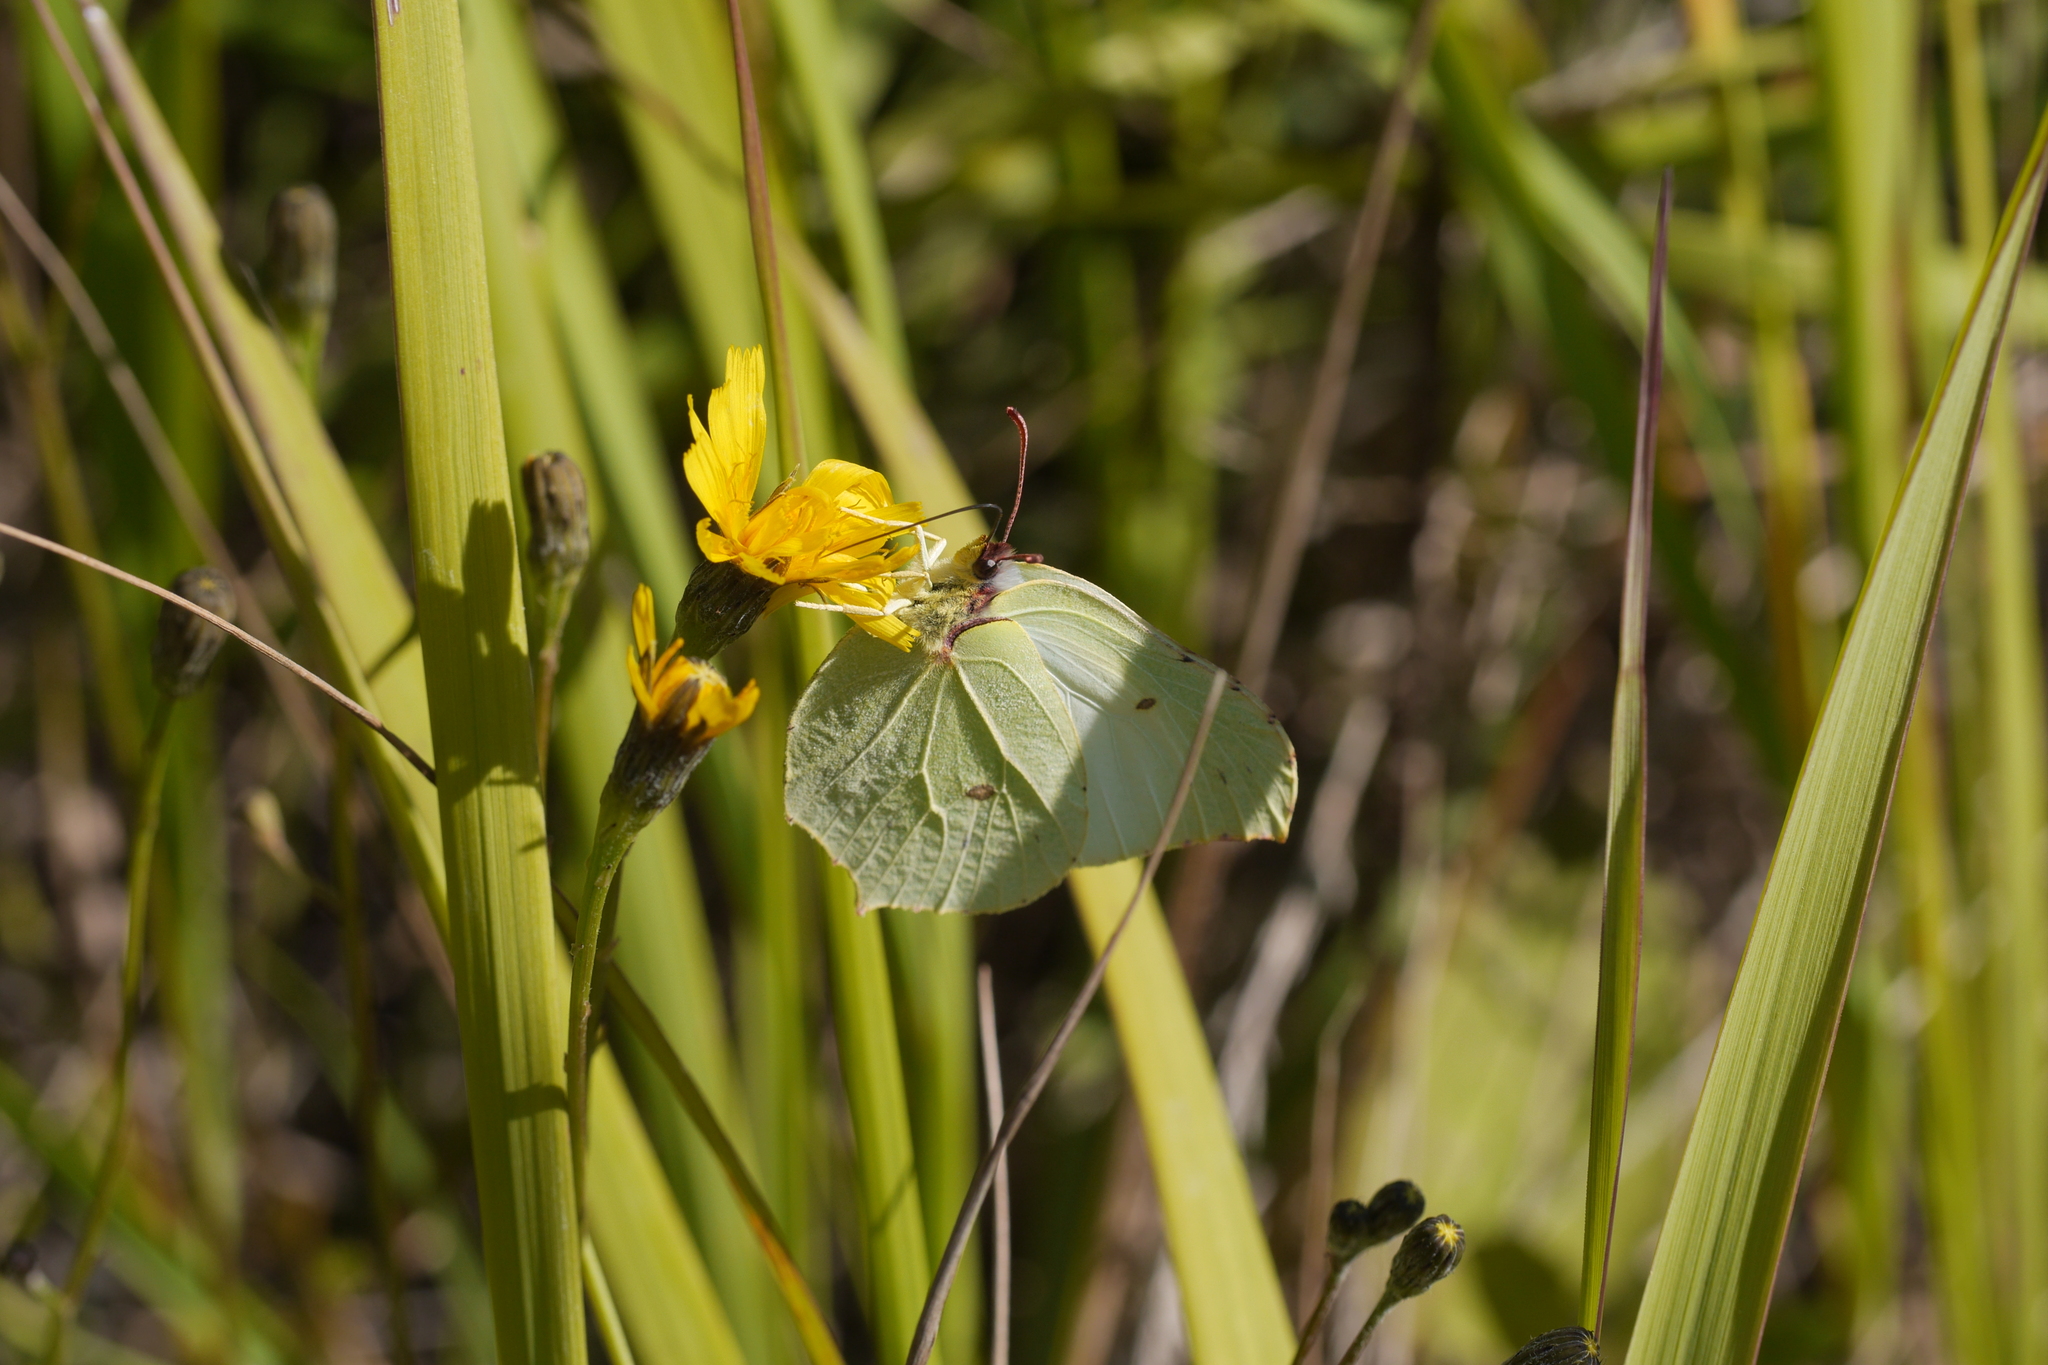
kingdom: Animalia
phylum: Arthropoda
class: Insecta
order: Lepidoptera
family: Pieridae
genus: Gonepteryx
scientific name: Gonepteryx rhamni
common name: Brimstone
